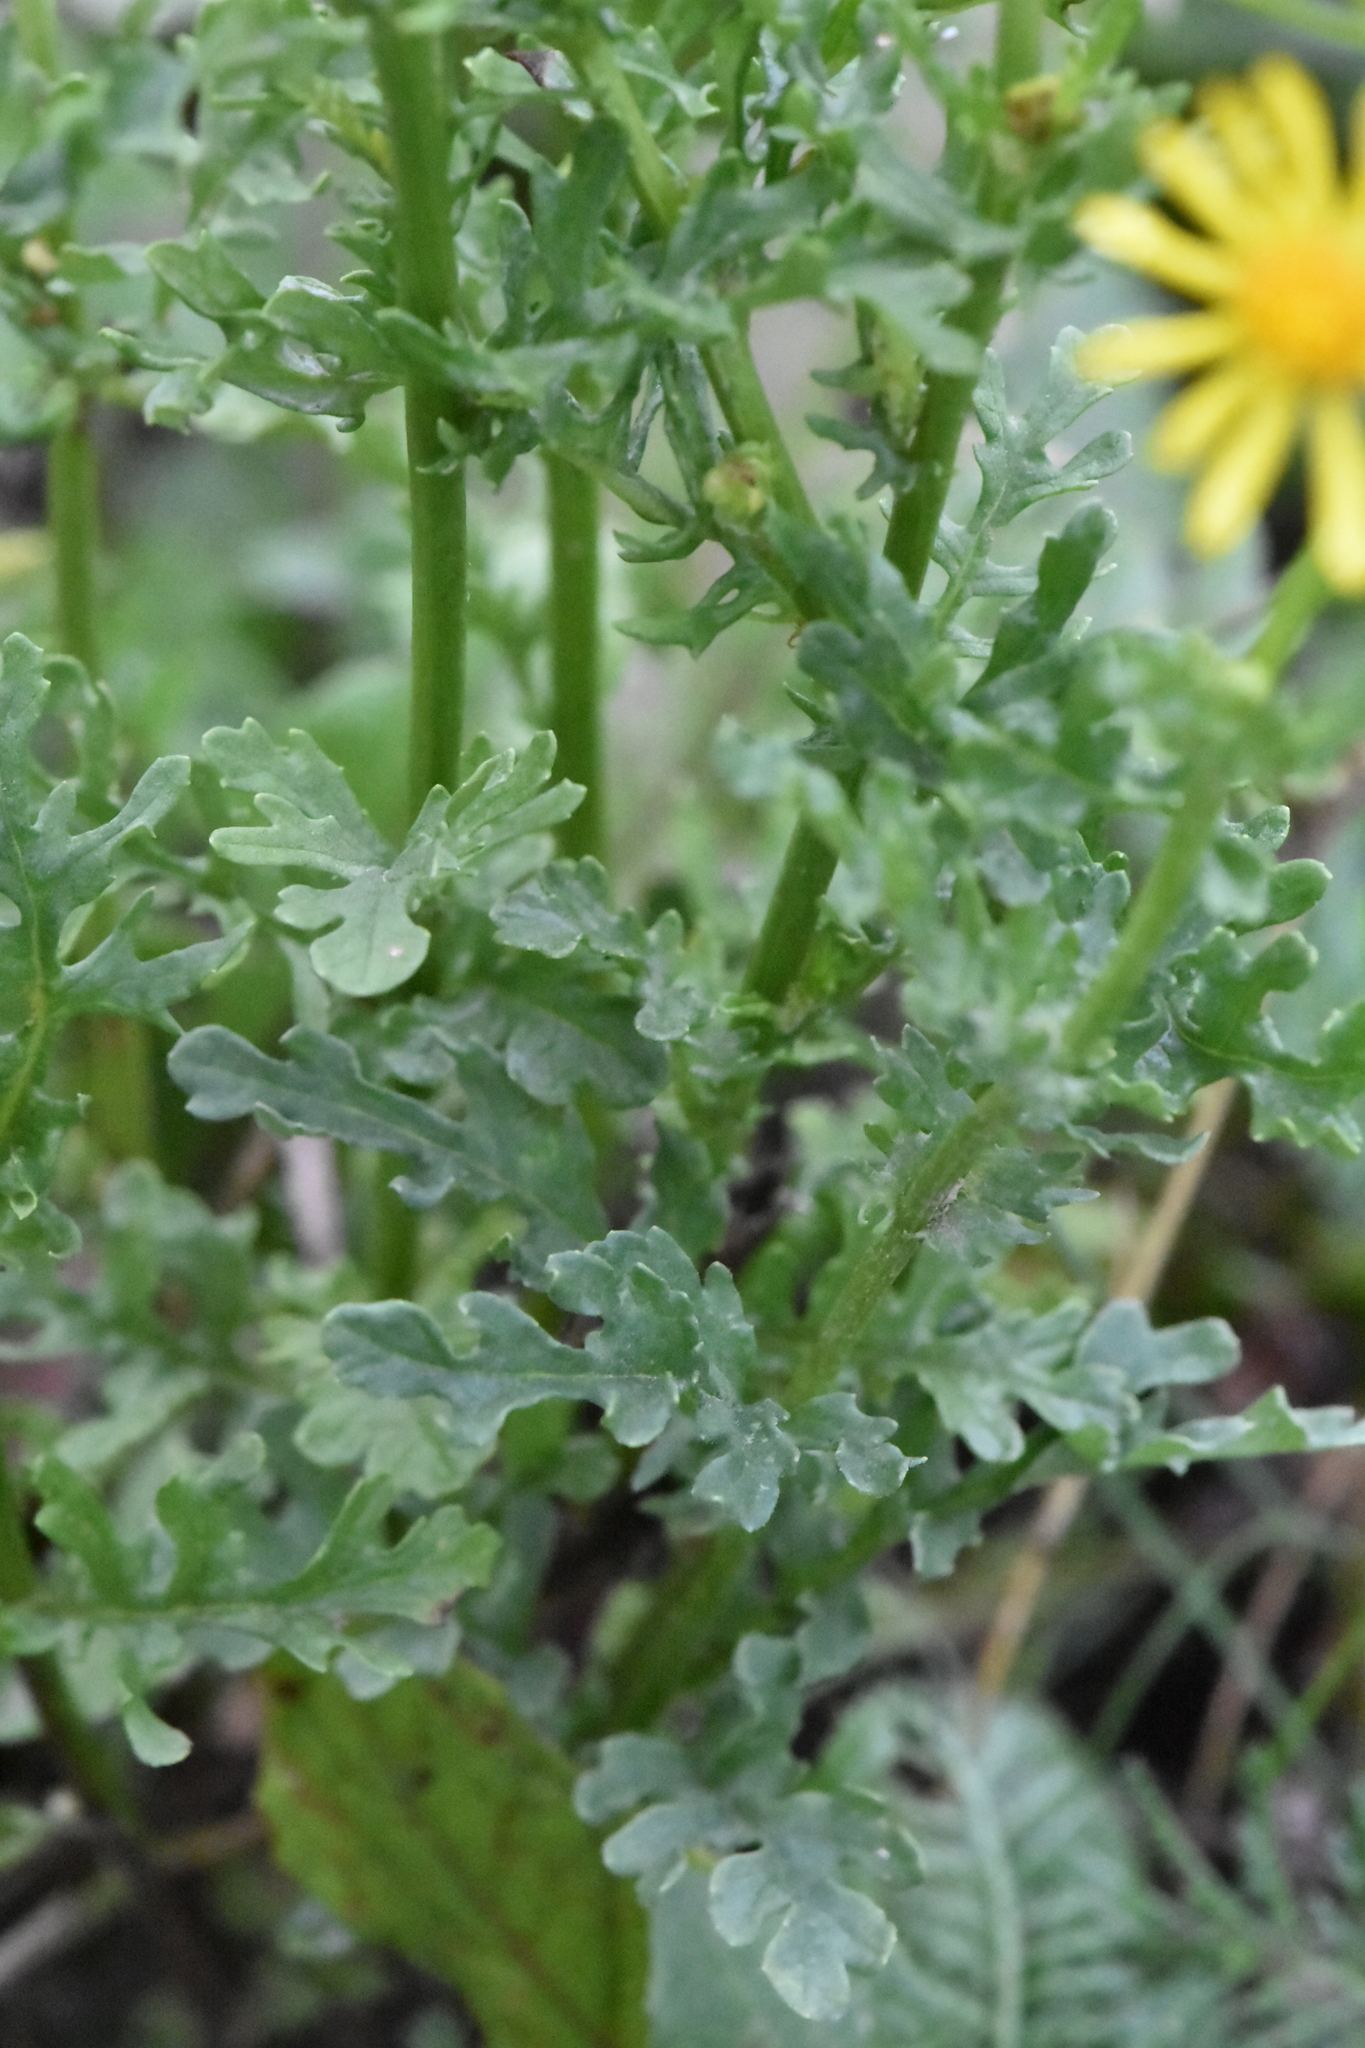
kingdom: Plantae
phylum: Tracheophyta
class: Magnoliopsida
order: Asterales
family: Asteraceae
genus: Jacobaea
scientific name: Jacobaea vulgaris
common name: Stinking willie
